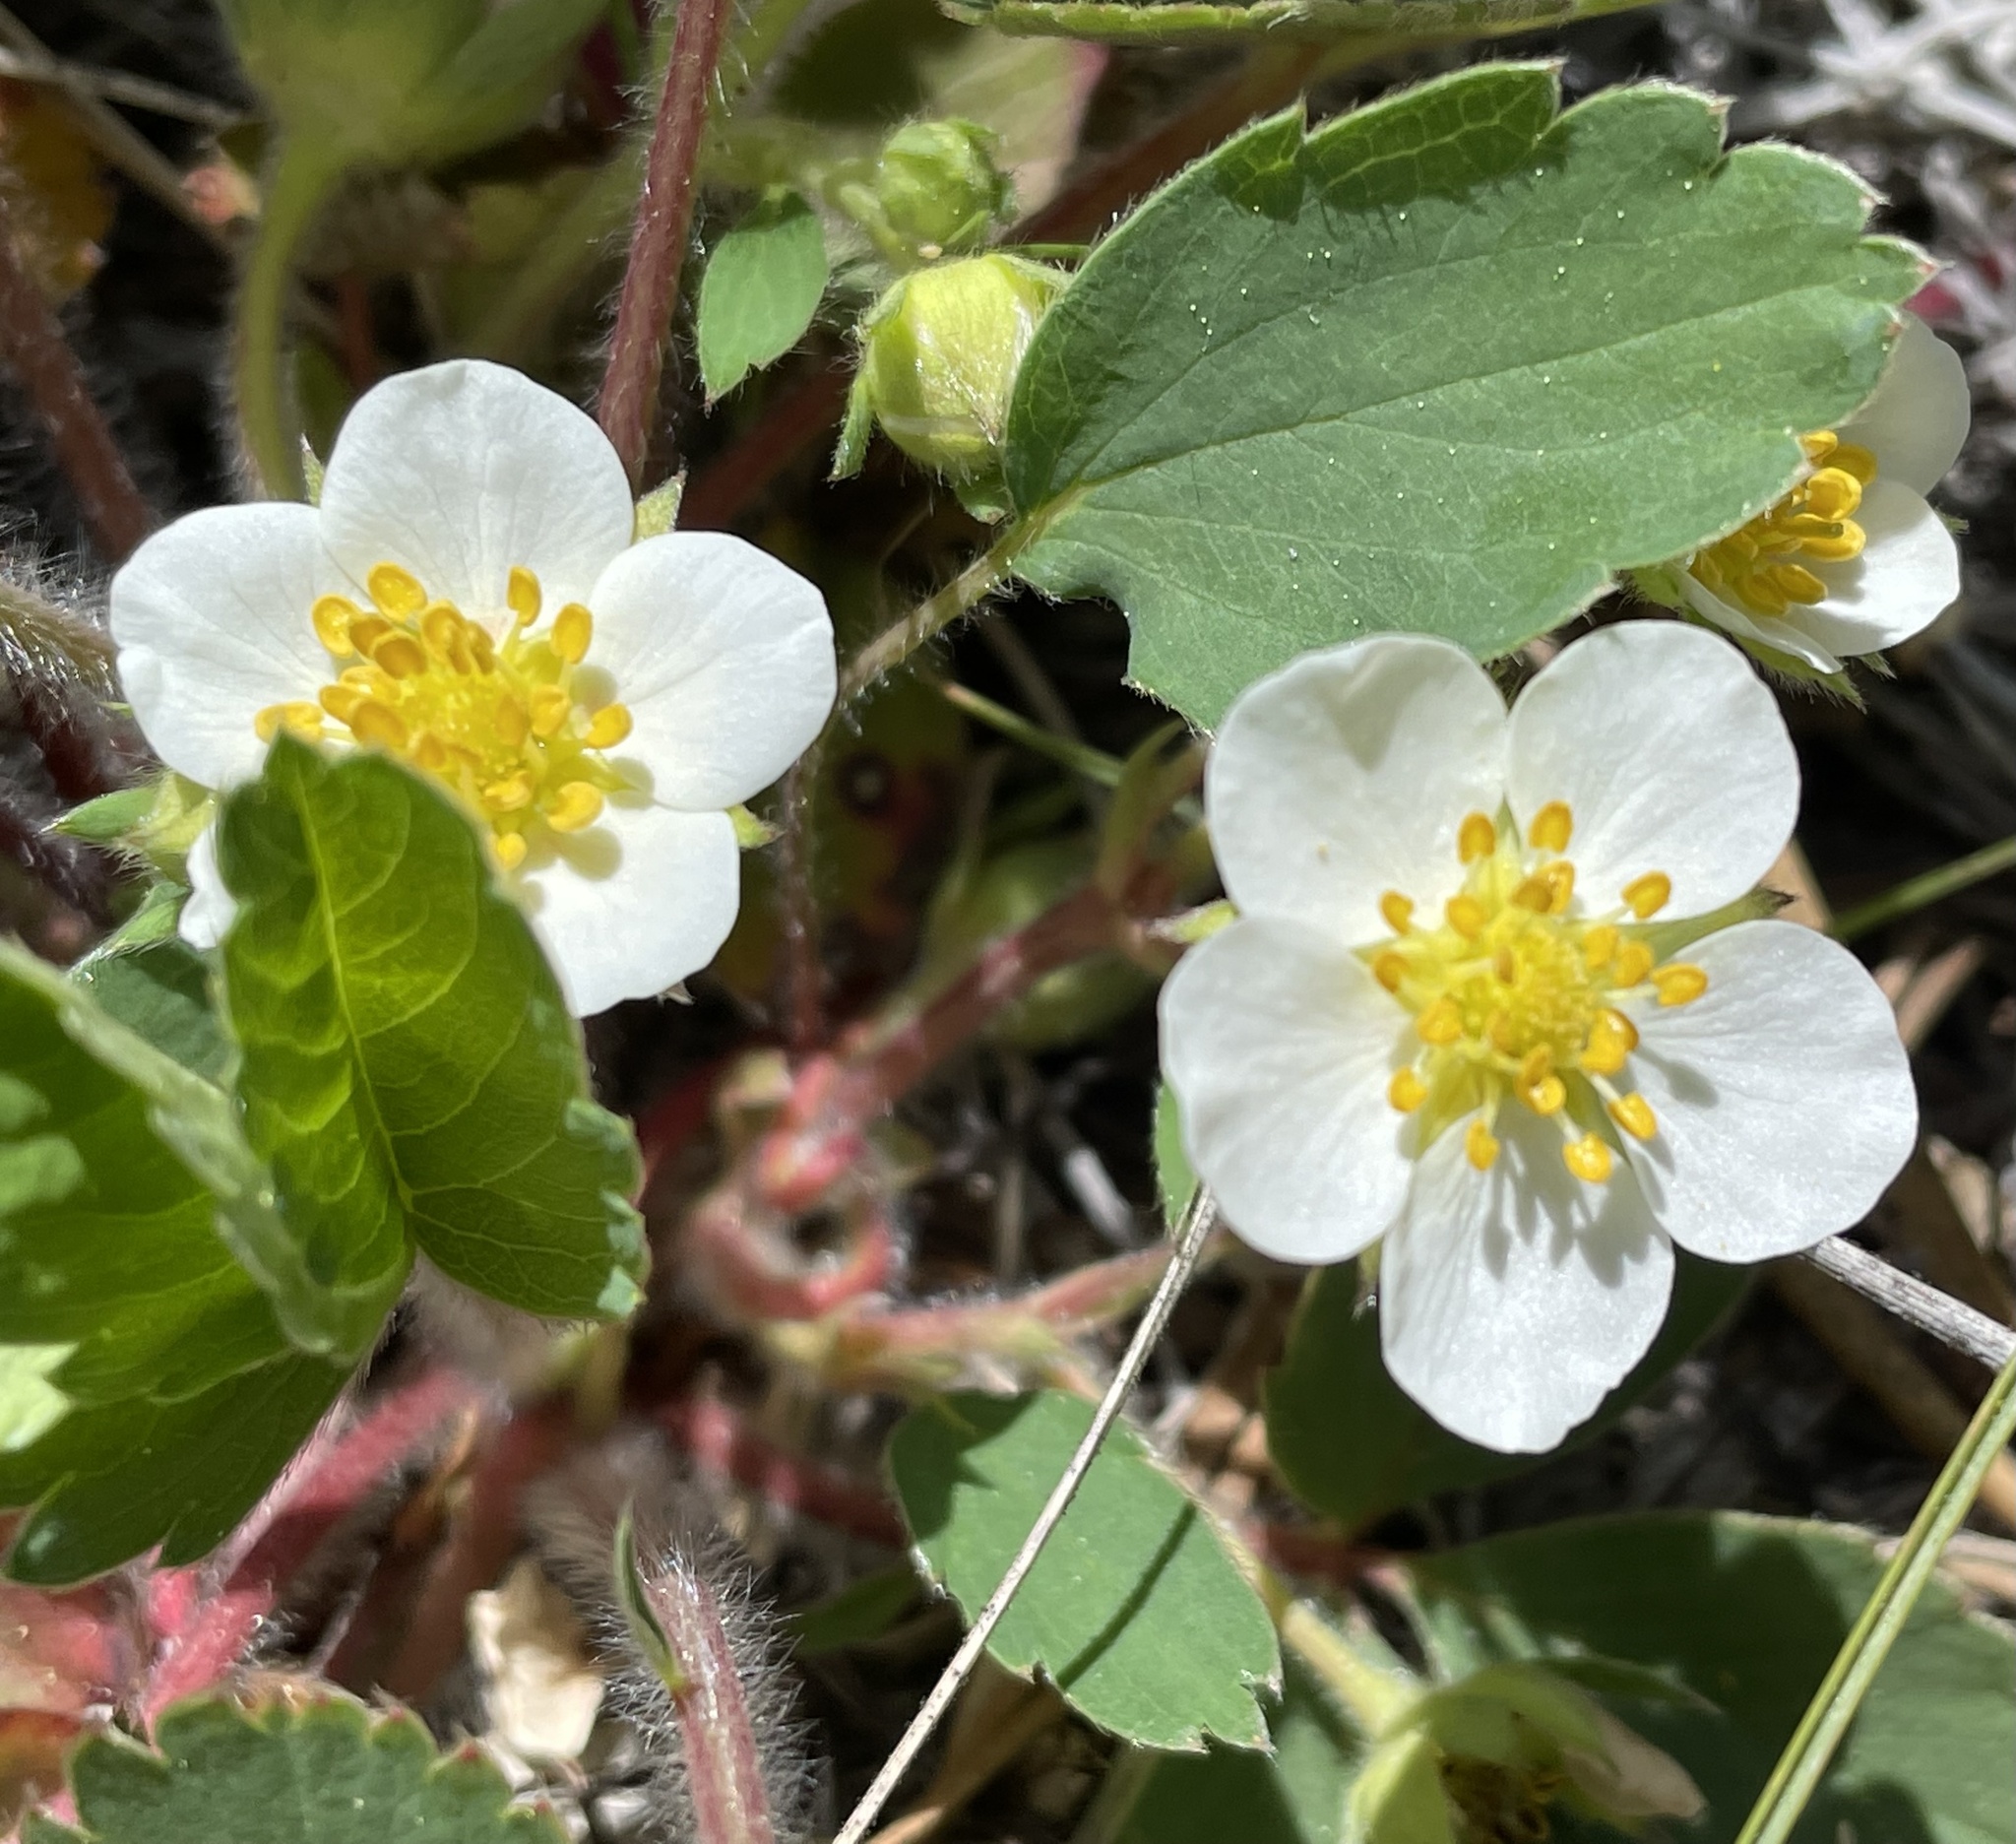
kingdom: Plantae
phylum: Tracheophyta
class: Magnoliopsida
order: Rosales
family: Rosaceae
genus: Fragaria
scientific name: Fragaria virginiana
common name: Thickleaved wild strawberry
